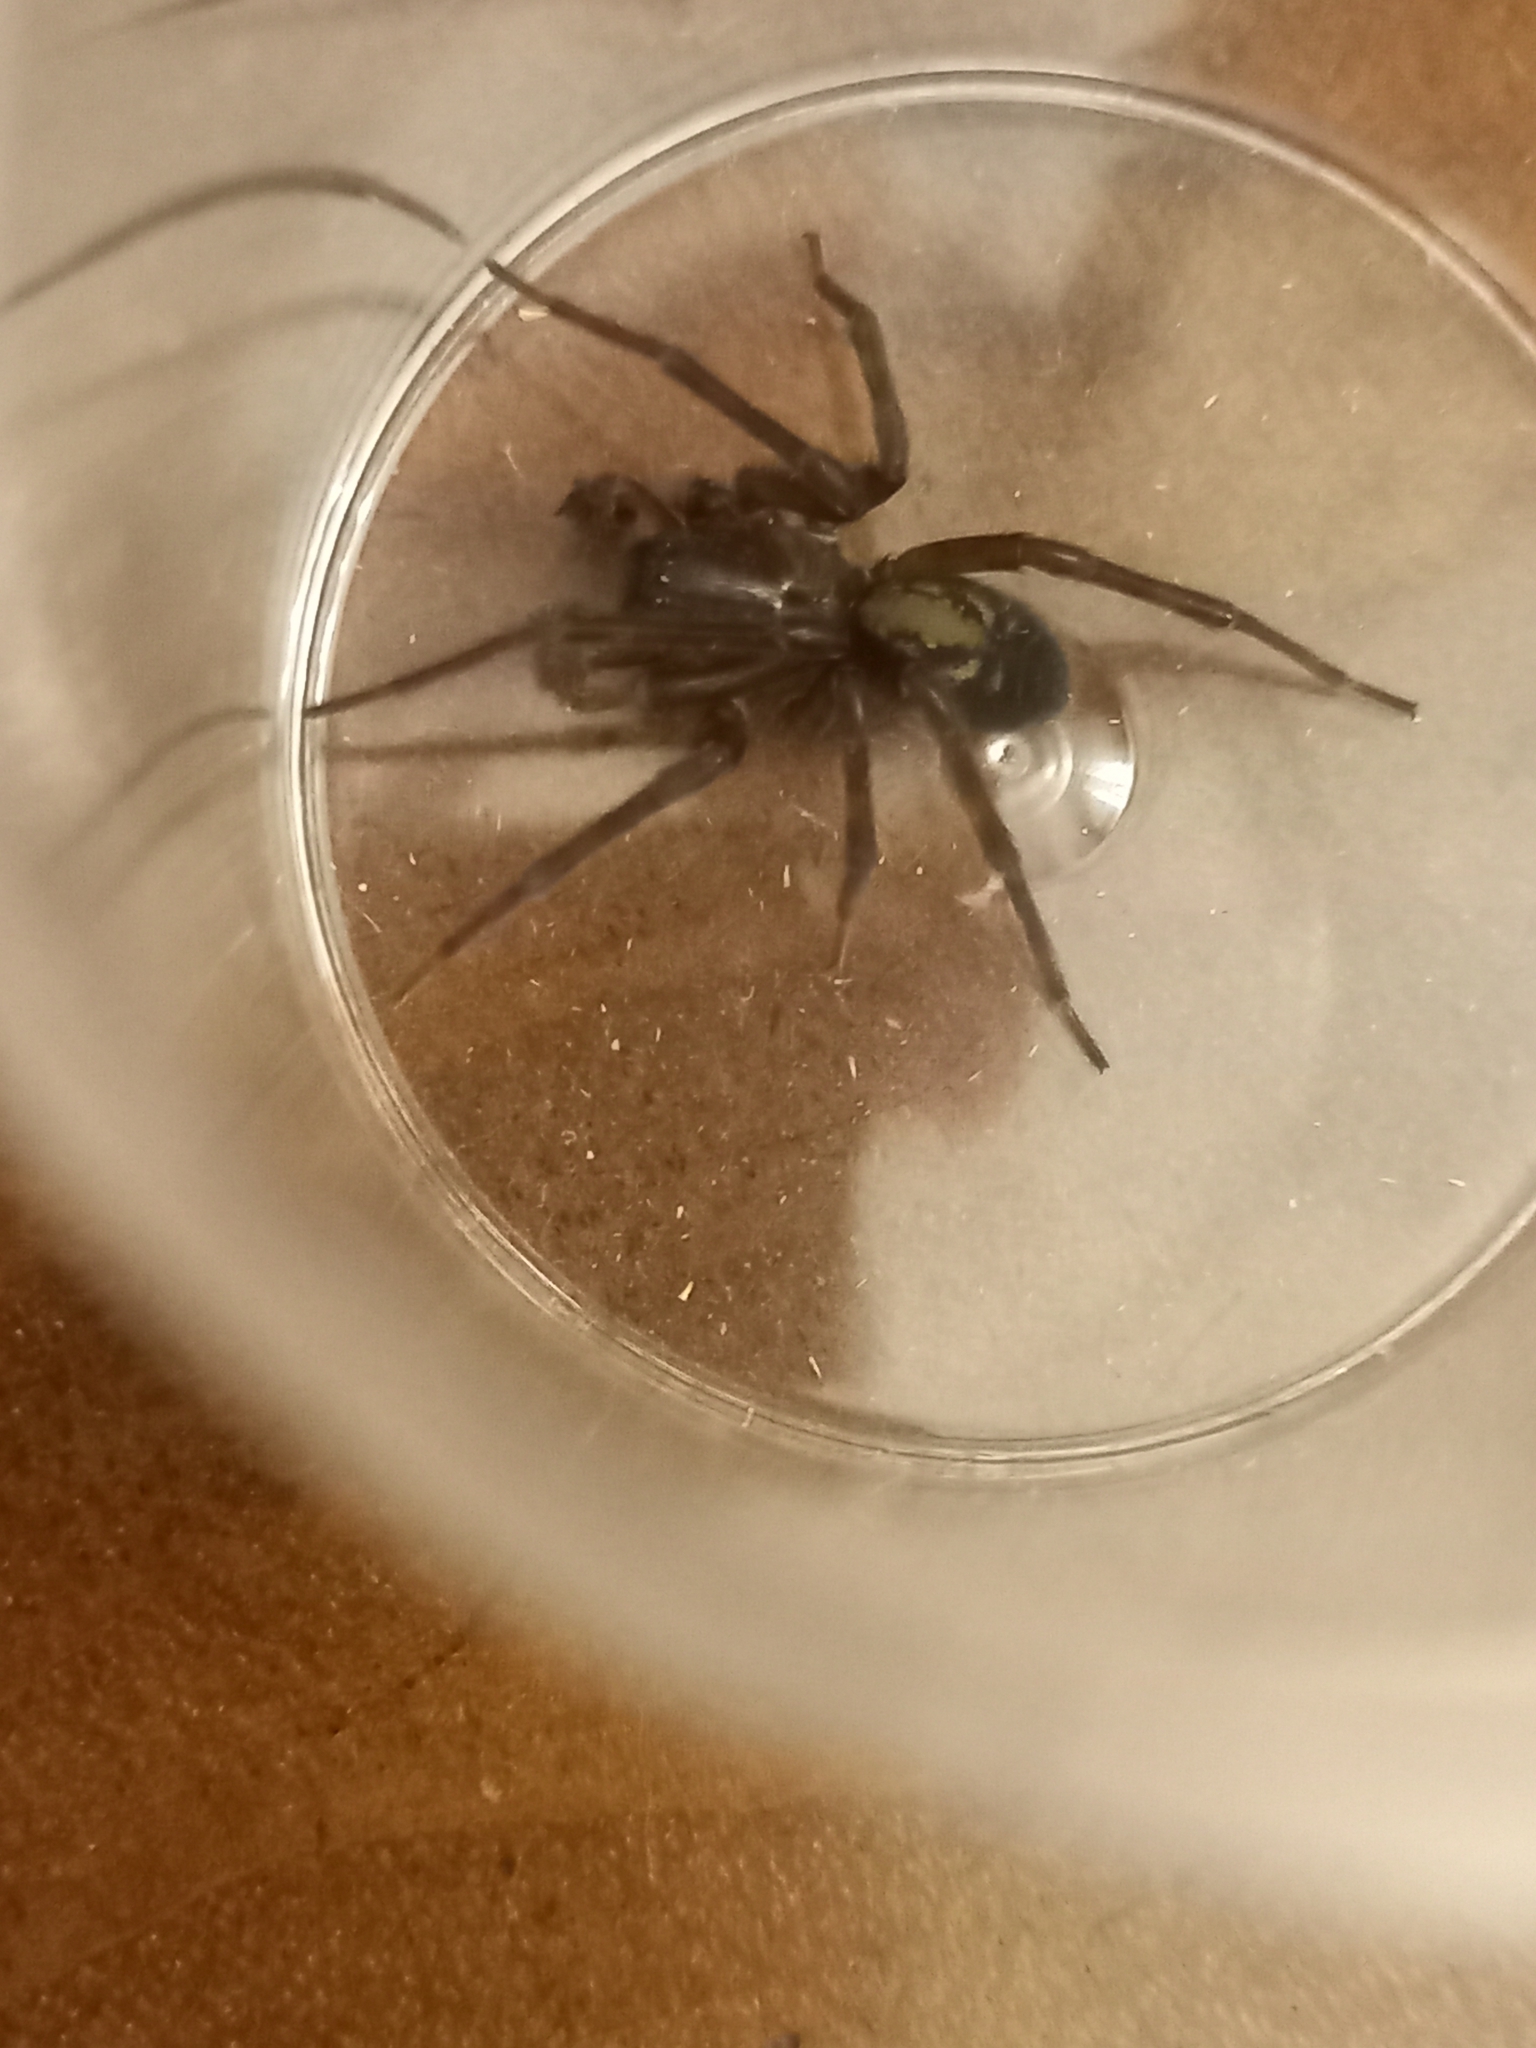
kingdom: Animalia
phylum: Arthropoda
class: Arachnida
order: Araneae
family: Amaurobiidae
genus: Amaurobius
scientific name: Amaurobius ferox
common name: Black laceweaver
